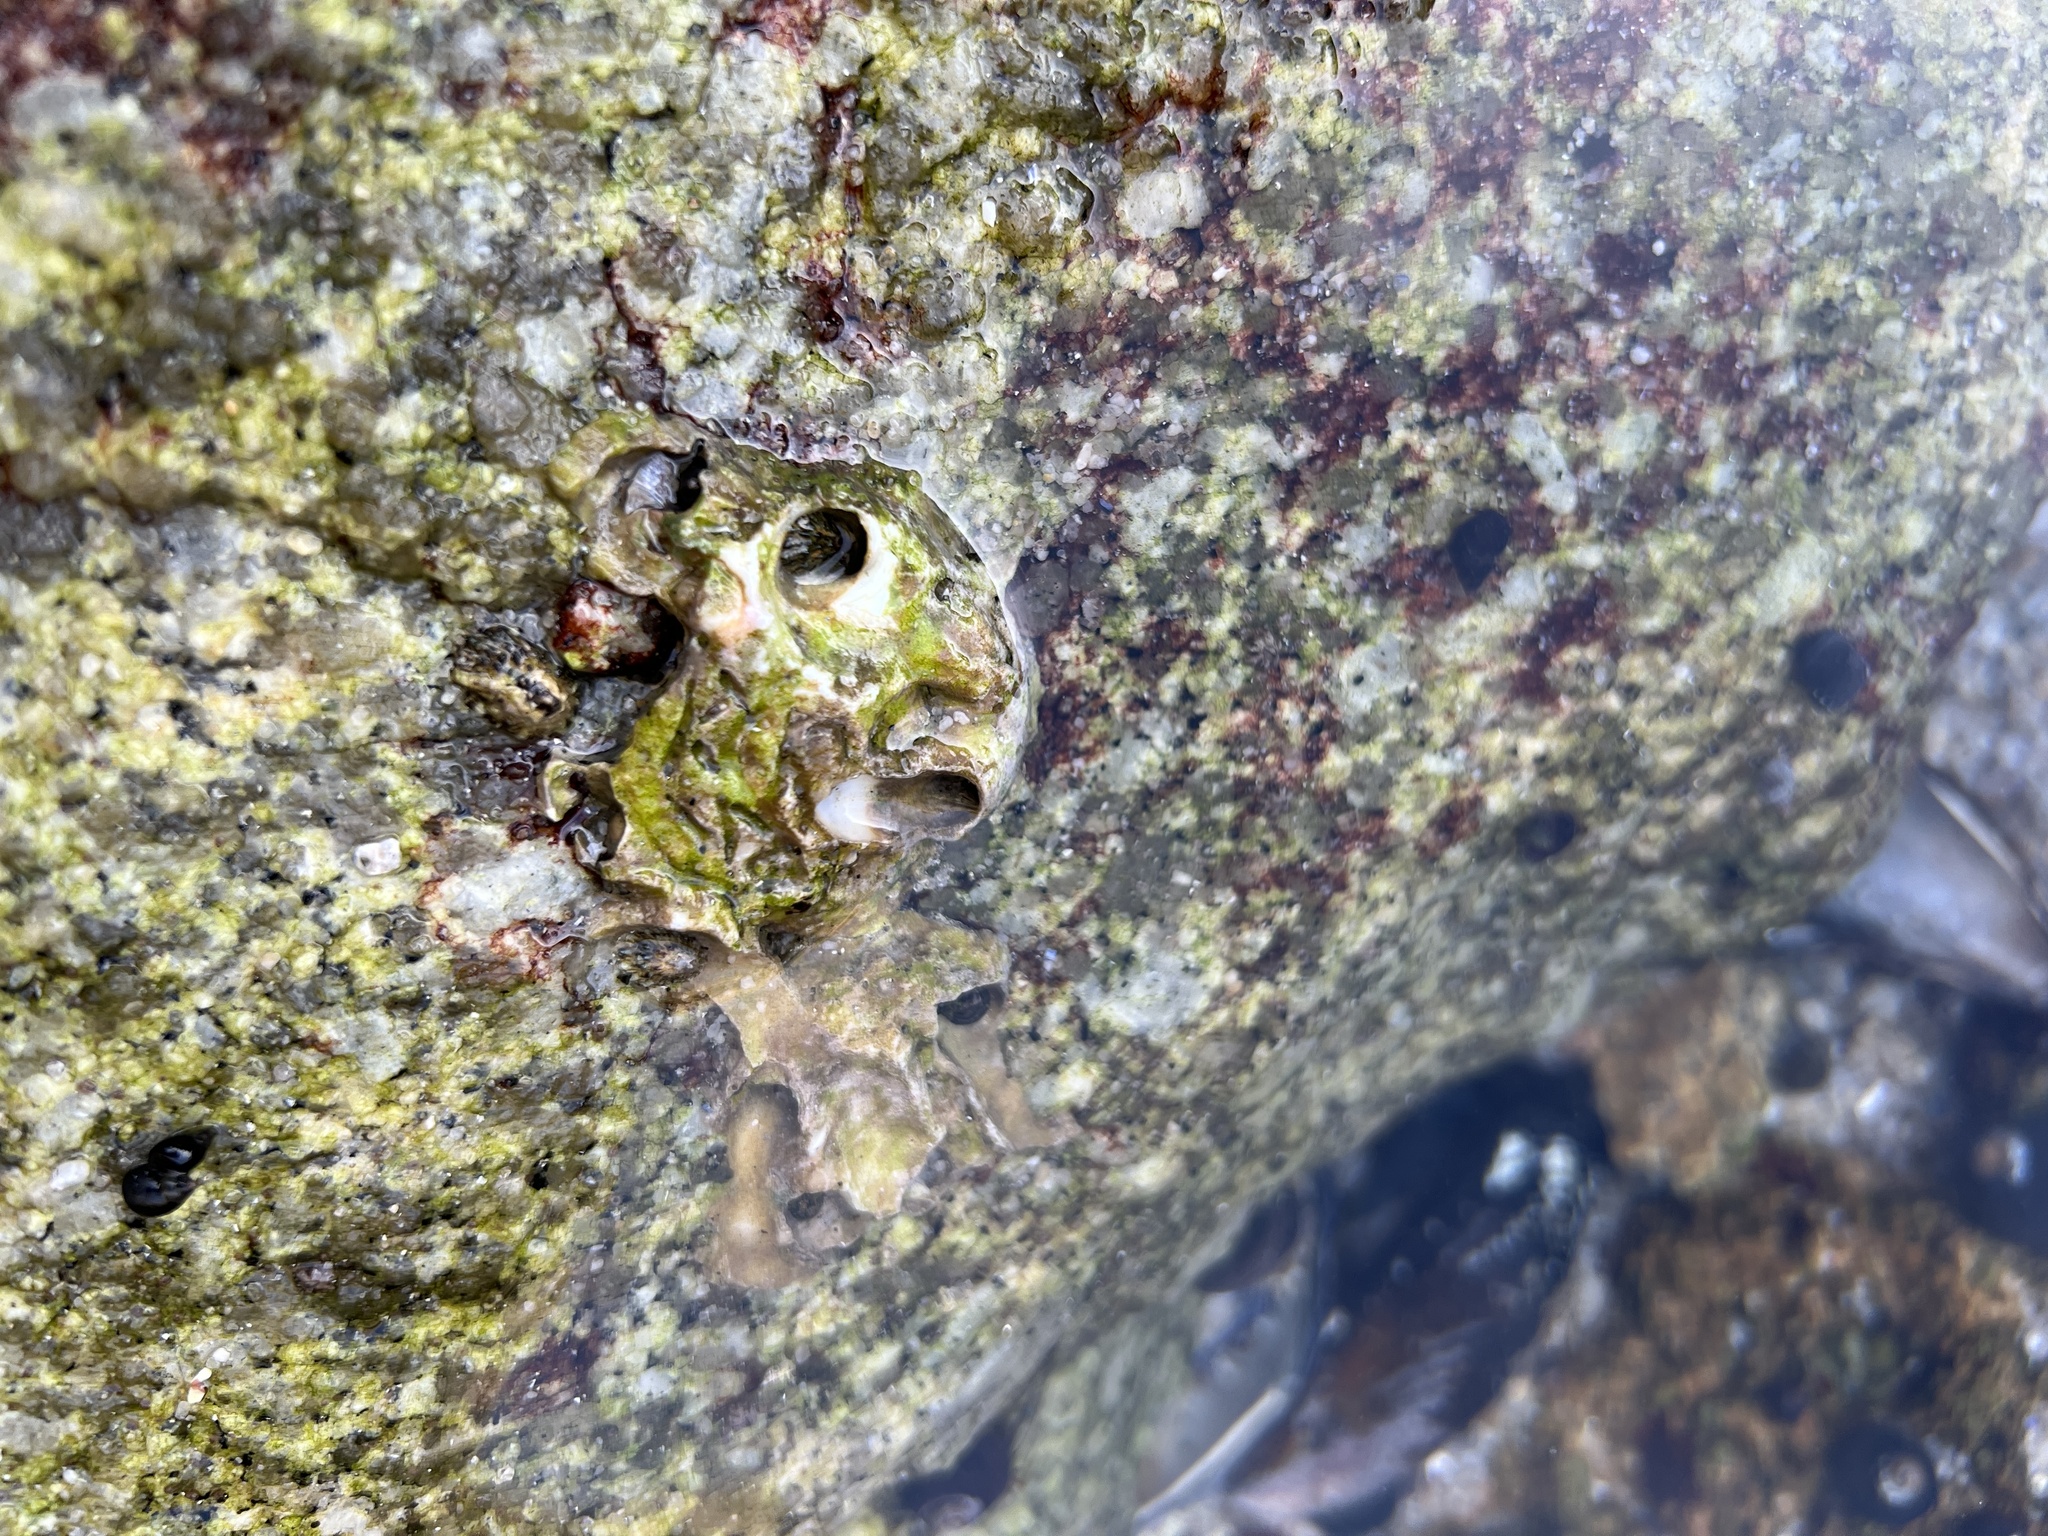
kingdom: Animalia
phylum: Mollusca
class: Gastropoda
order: Littorinimorpha
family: Vermetidae
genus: Thylacodes
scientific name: Thylacodes squamigerus
